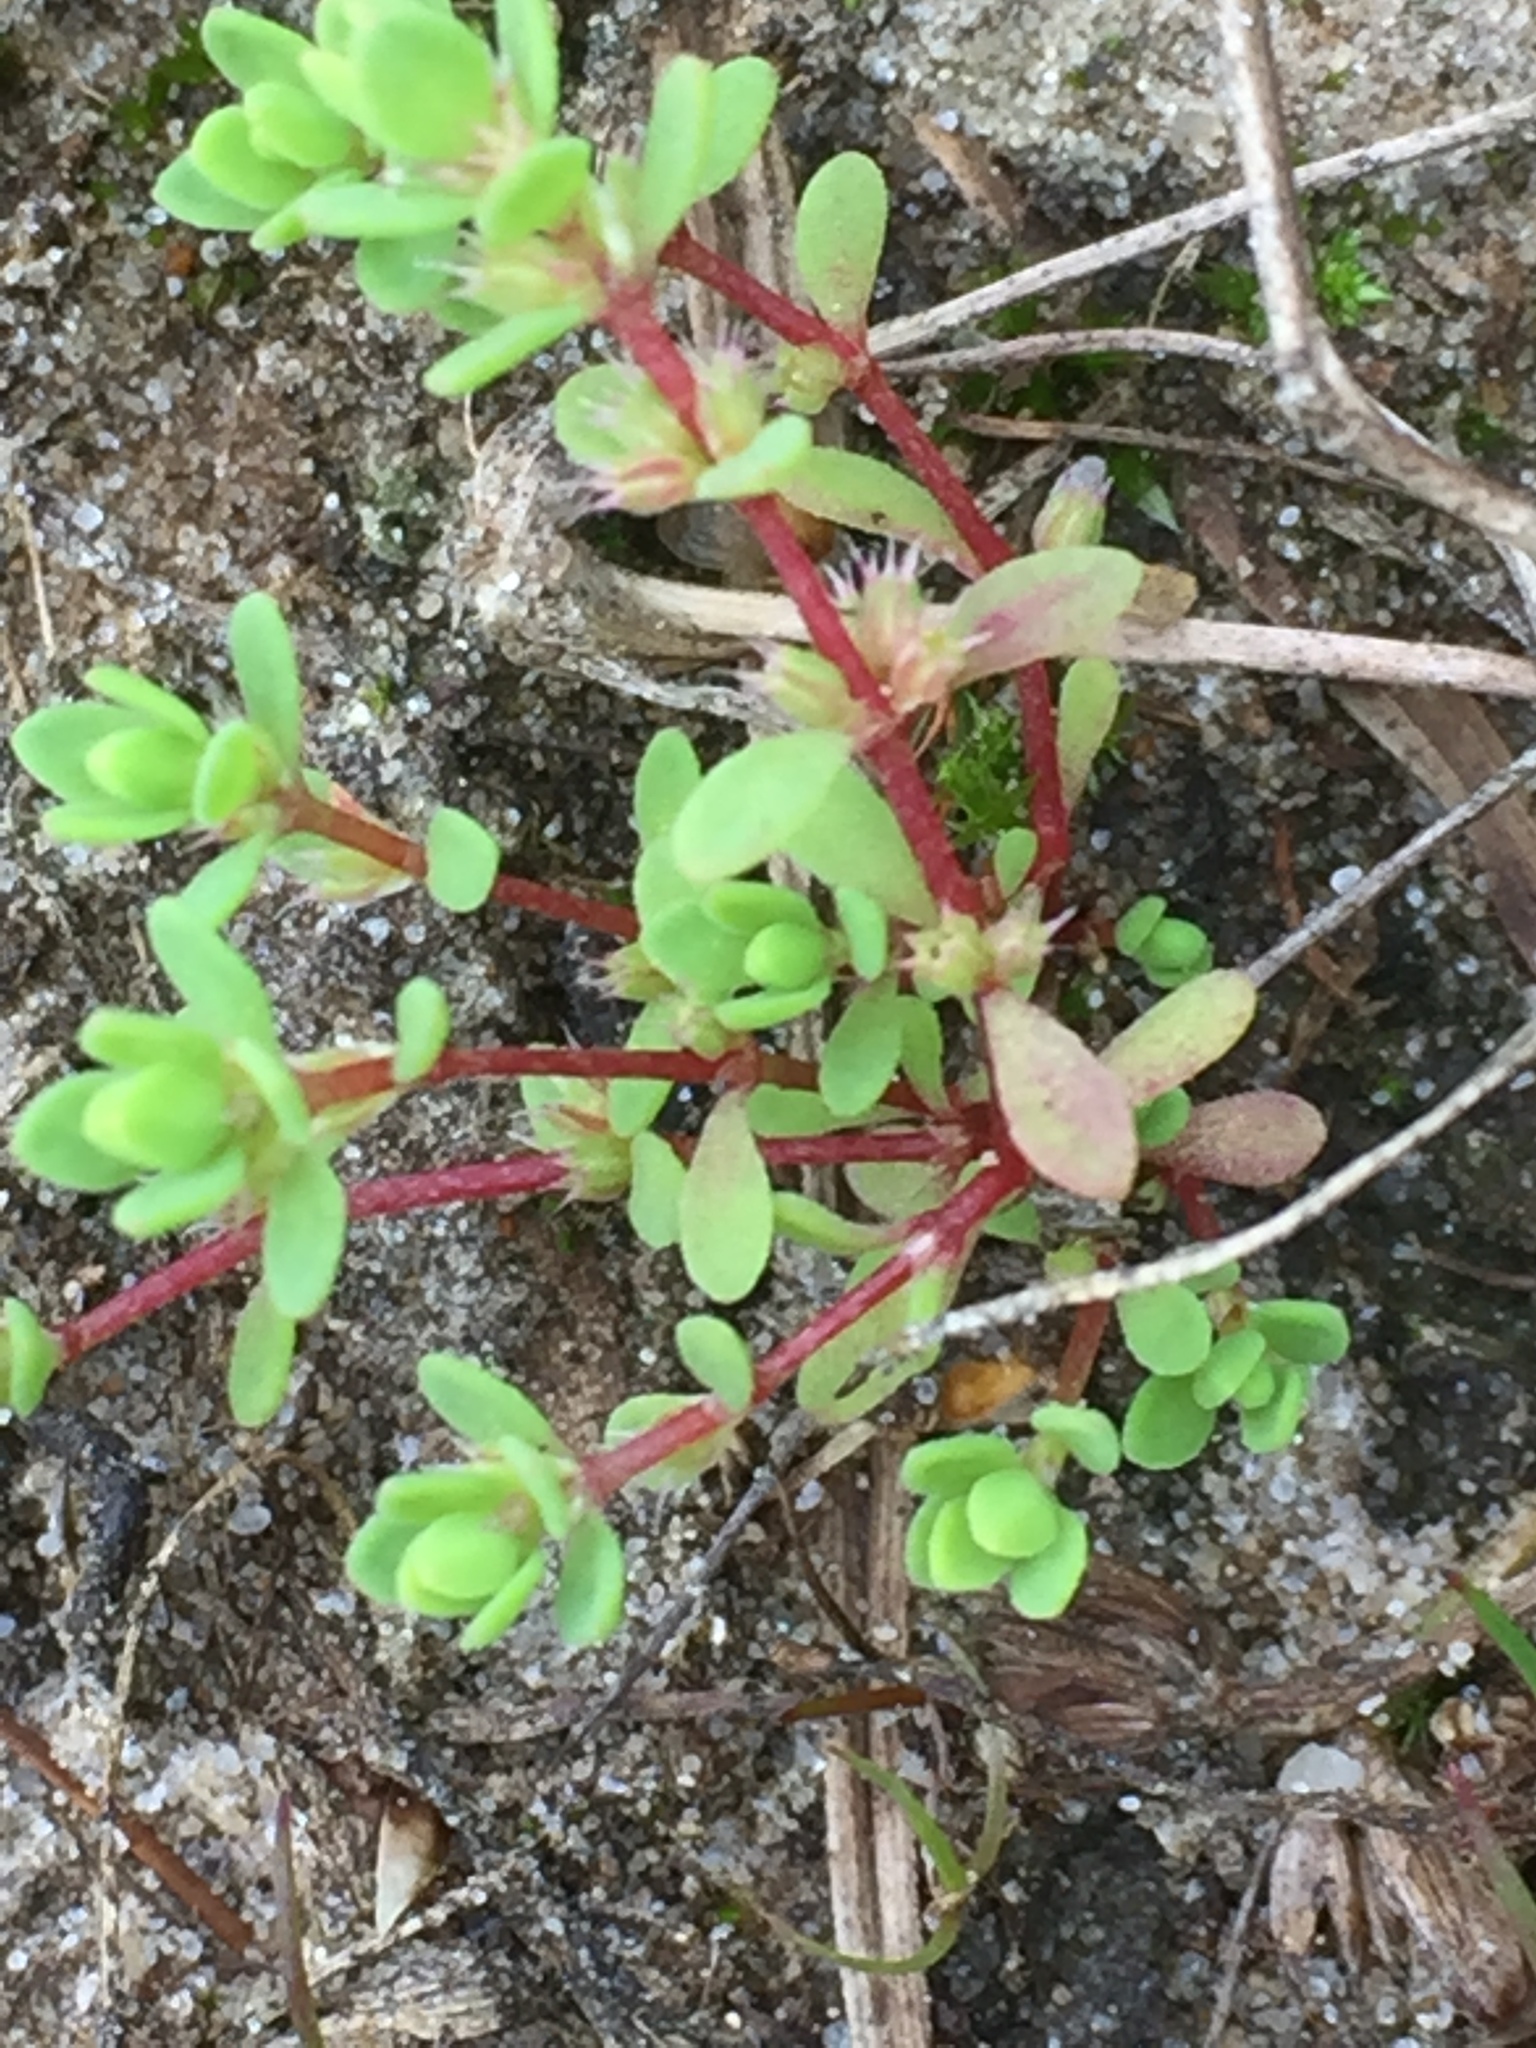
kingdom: Plantae
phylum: Tracheophyta
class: Magnoliopsida
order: Caryophyllales
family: Caryophyllaceae
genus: Illecebrum
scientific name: Illecebrum verticillatum
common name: Coral necklace
